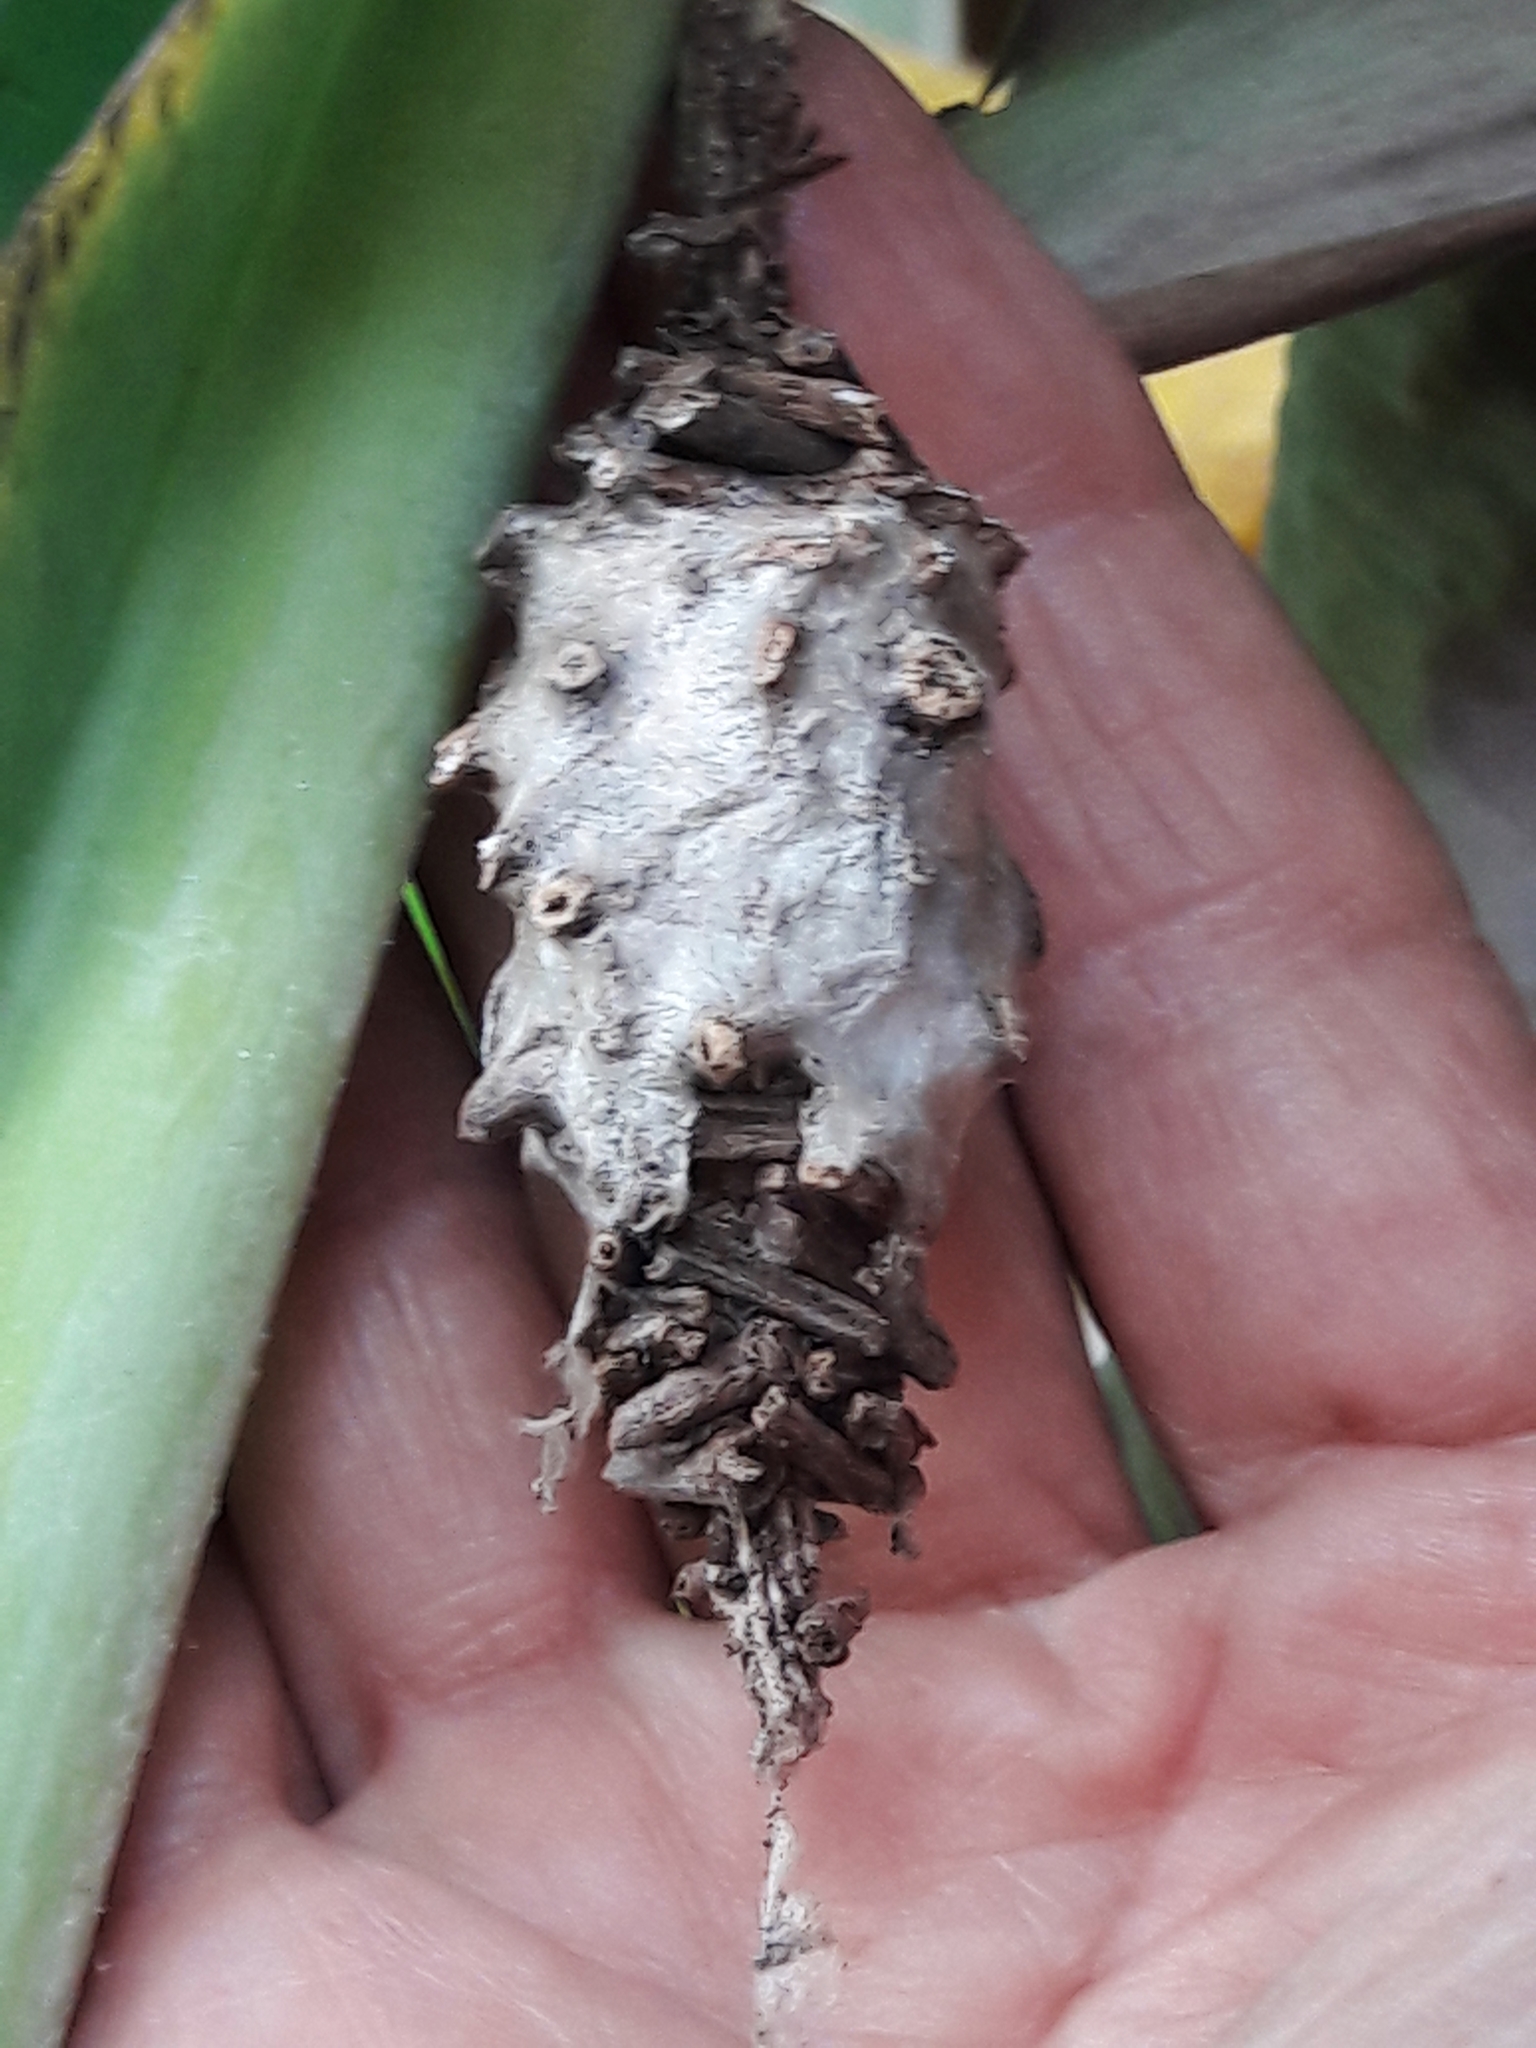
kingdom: Animalia
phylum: Arthropoda
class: Insecta
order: Lepidoptera
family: Psychidae
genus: Oiketicus
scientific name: Oiketicus kirbyi
